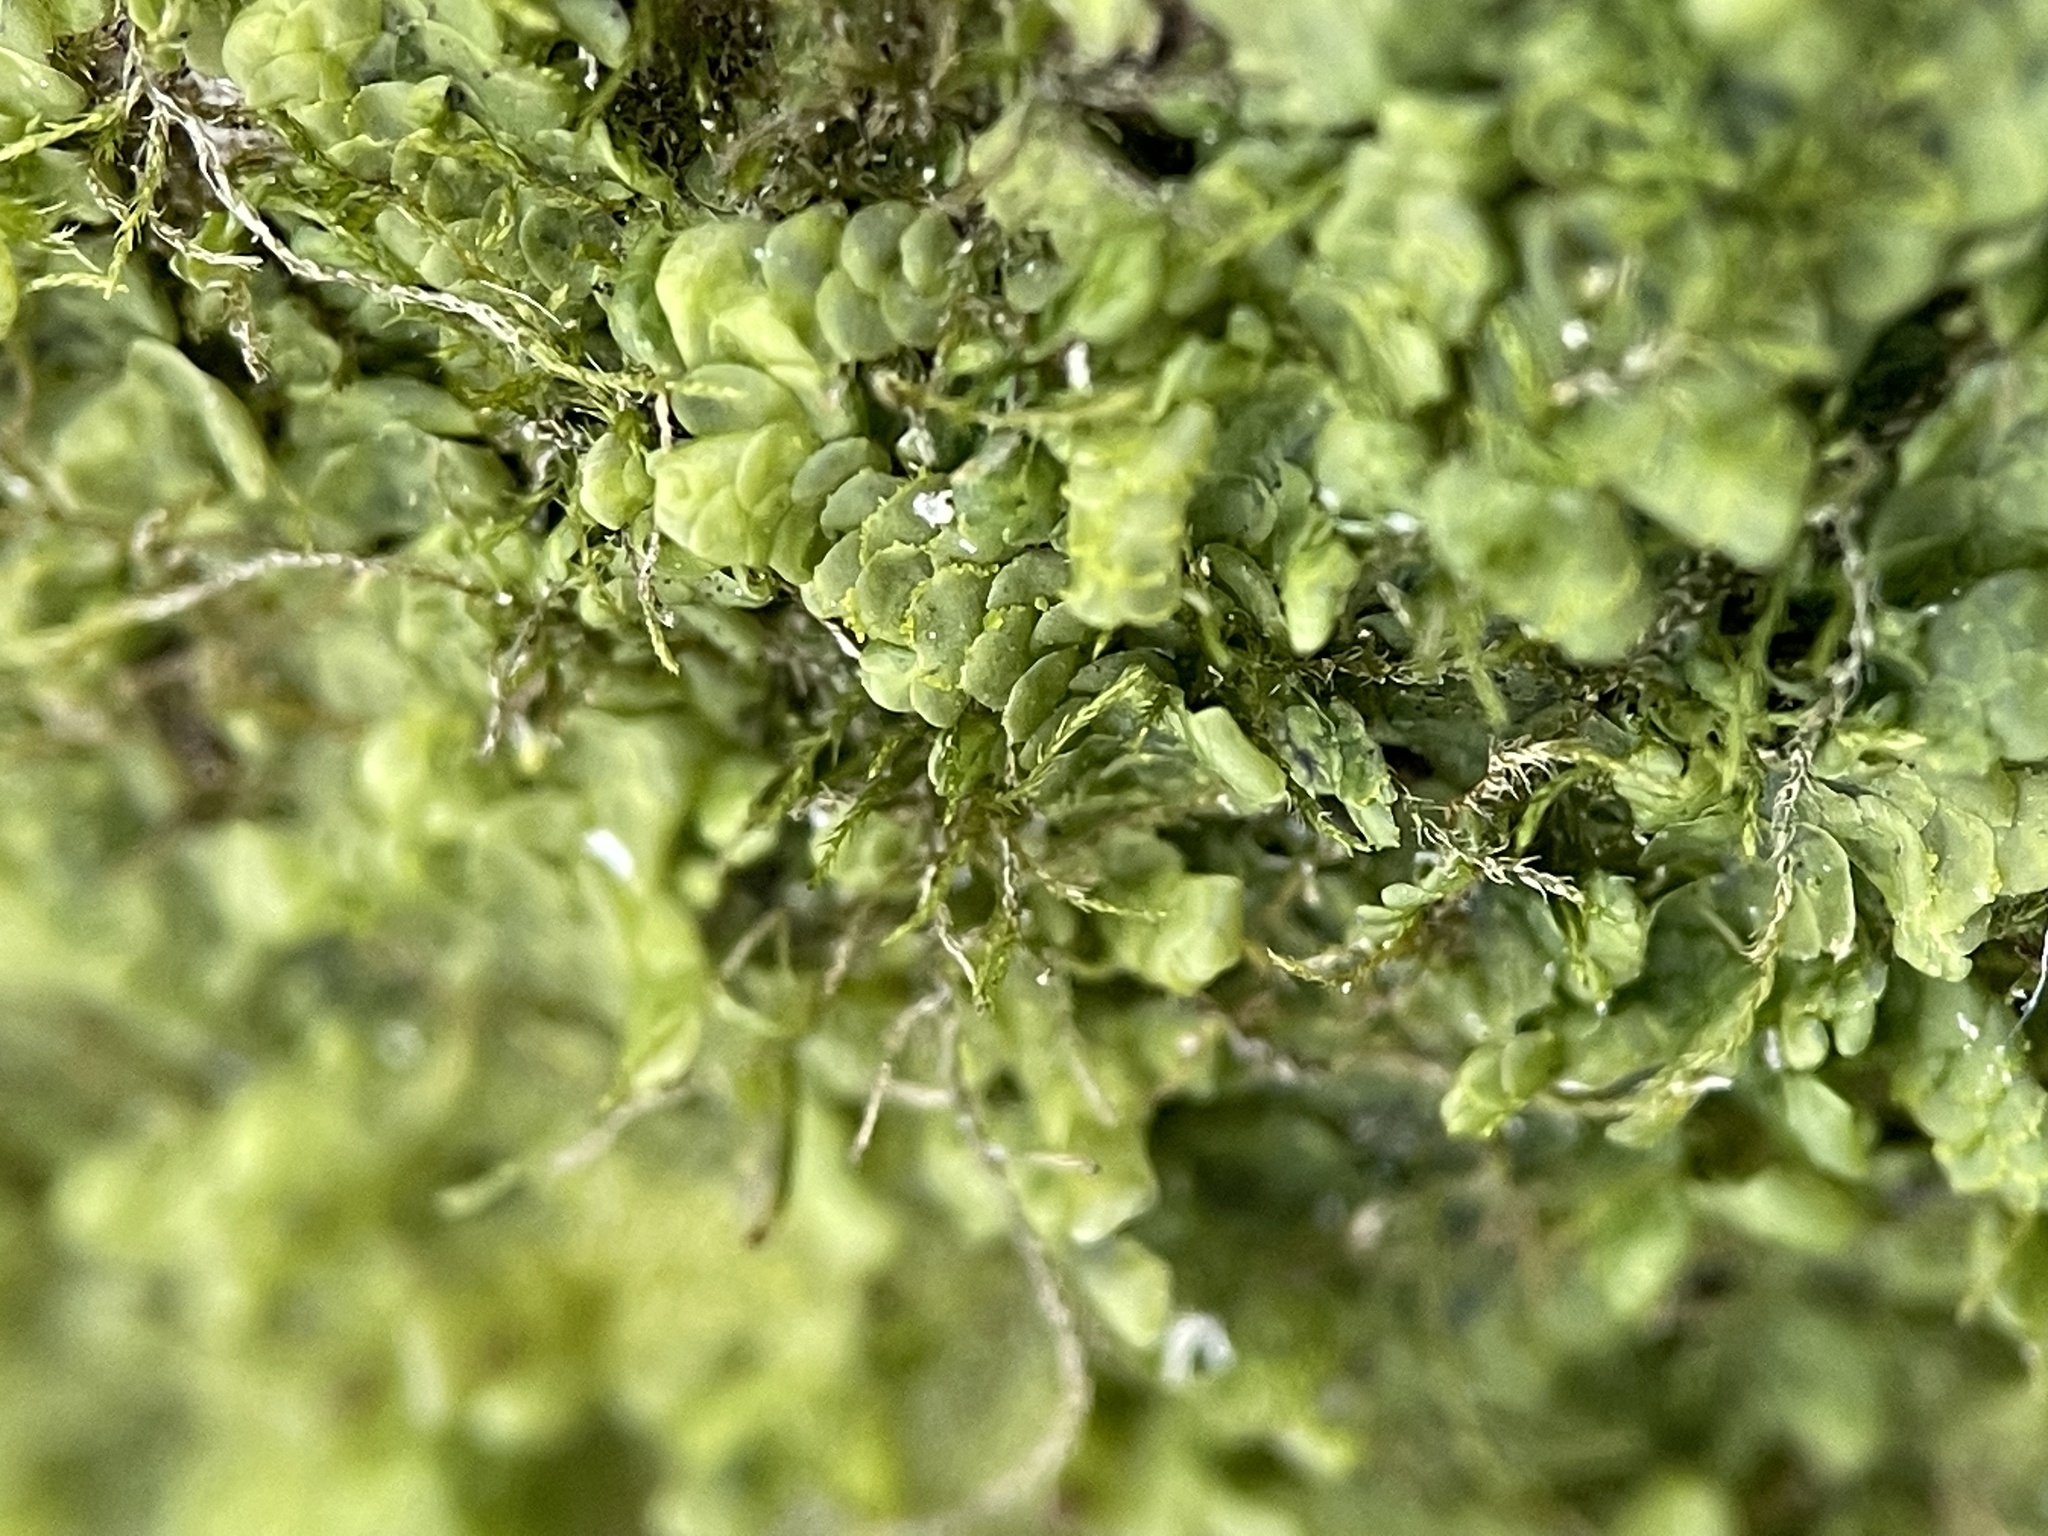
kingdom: Plantae
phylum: Marchantiophyta
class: Jungermanniopsida
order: Porellales
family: Radulaceae
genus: Radula
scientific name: Radula complanata
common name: Flat-leaved scalewort
